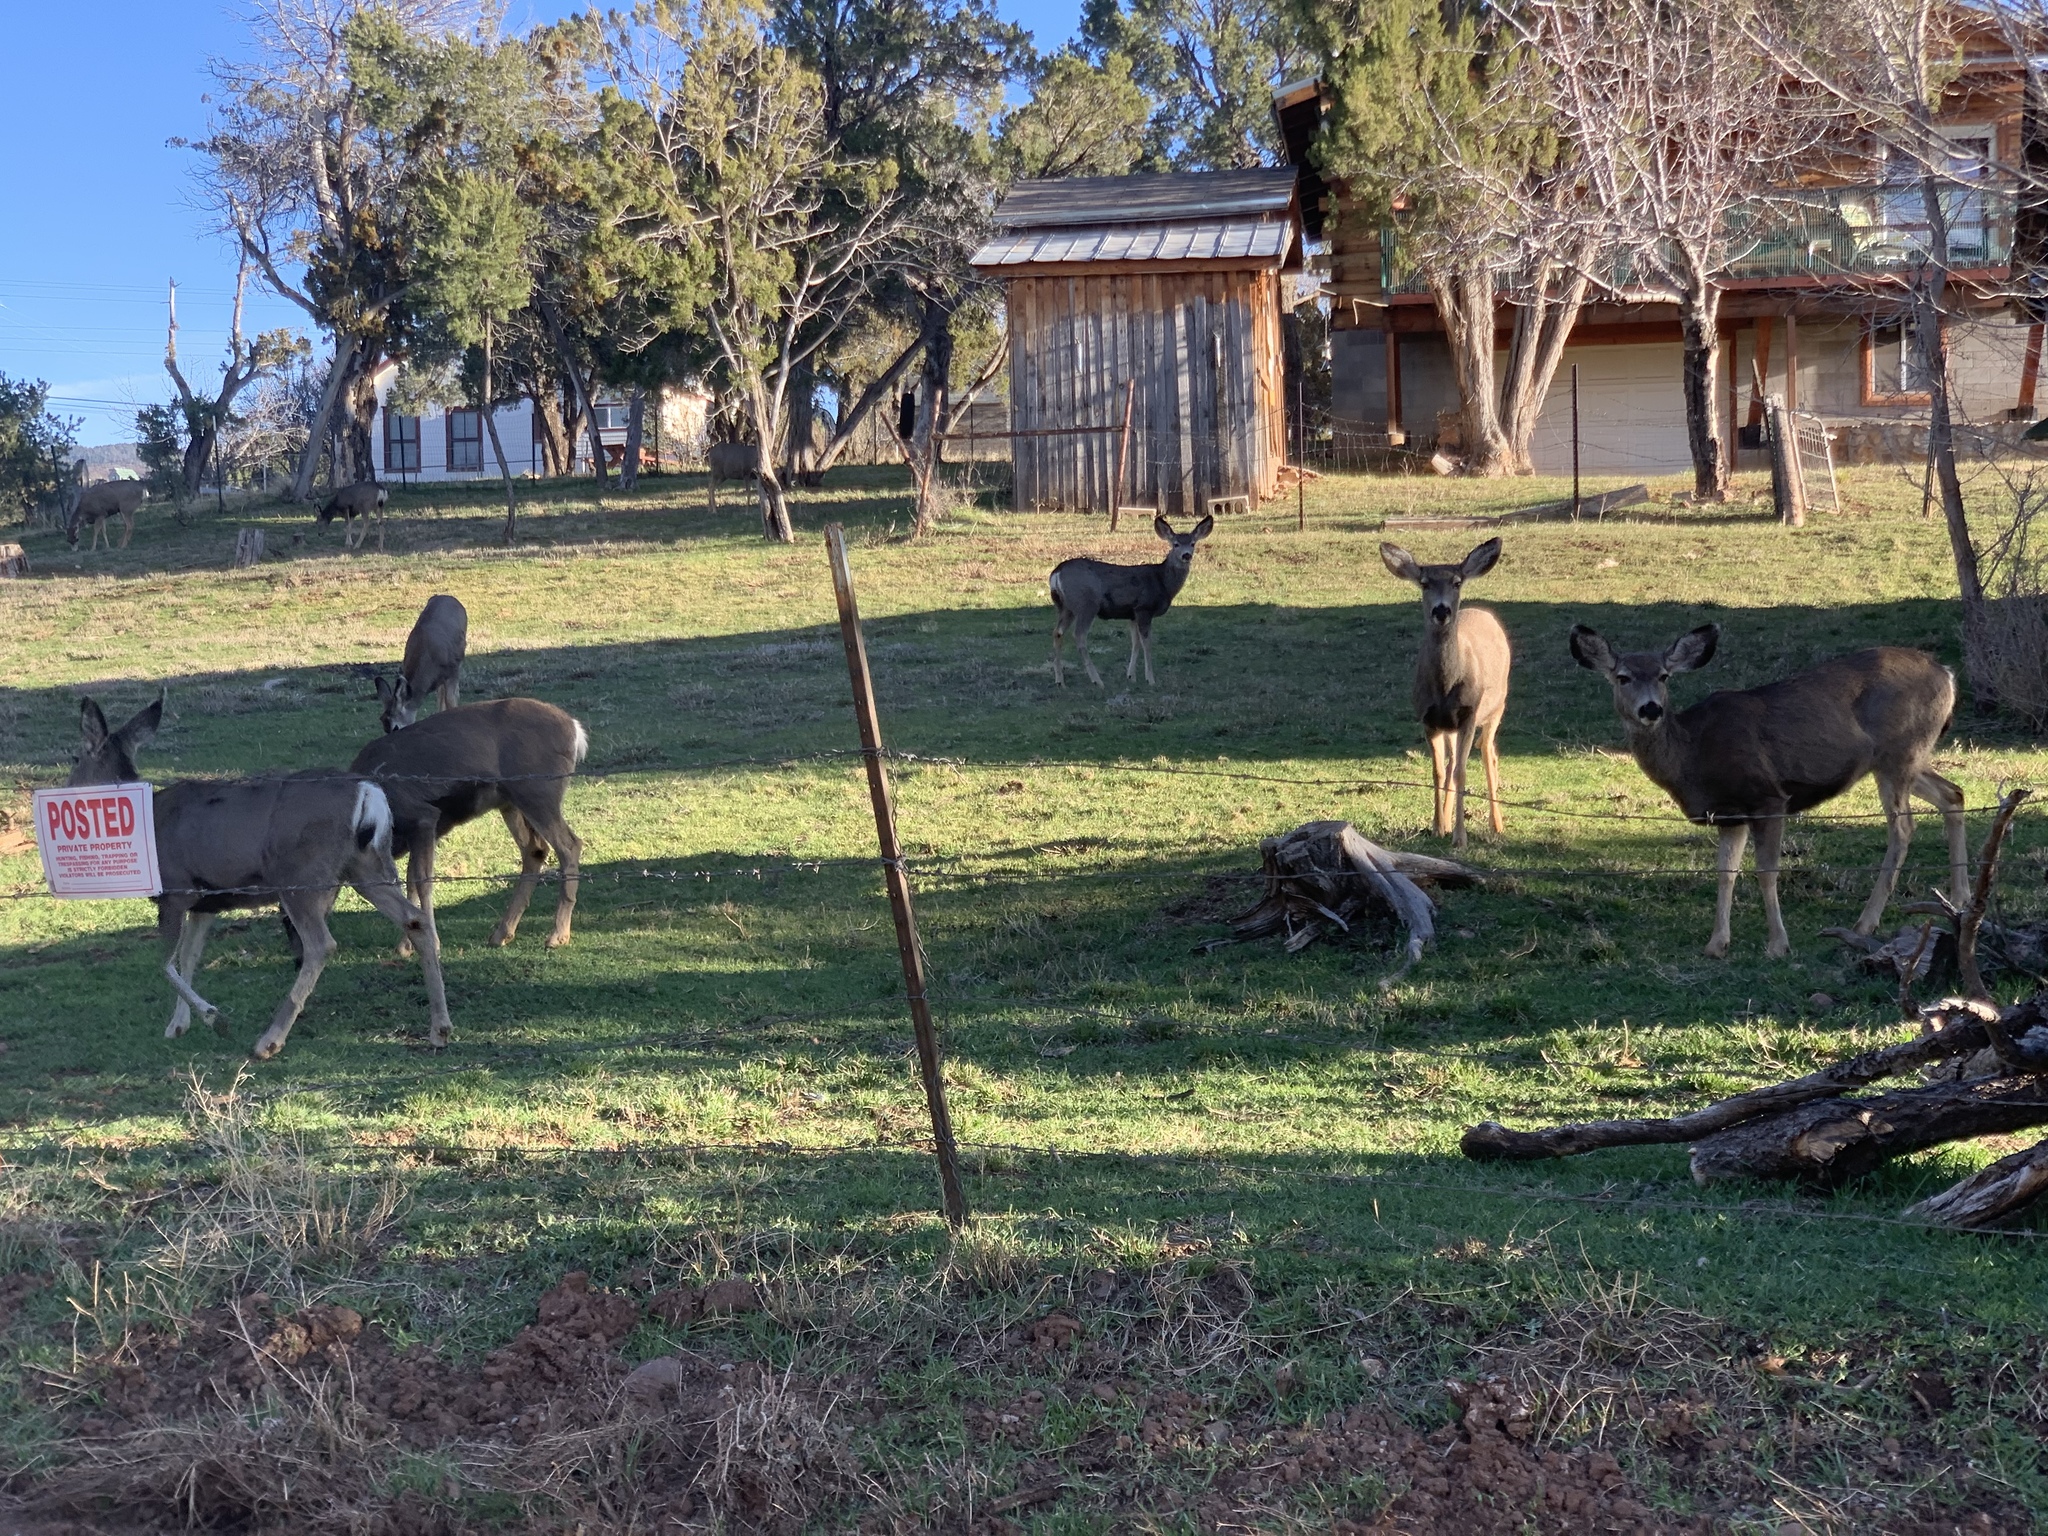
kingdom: Animalia
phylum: Chordata
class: Mammalia
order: Artiodactyla
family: Cervidae
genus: Odocoileus
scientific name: Odocoileus hemionus
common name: Mule deer
